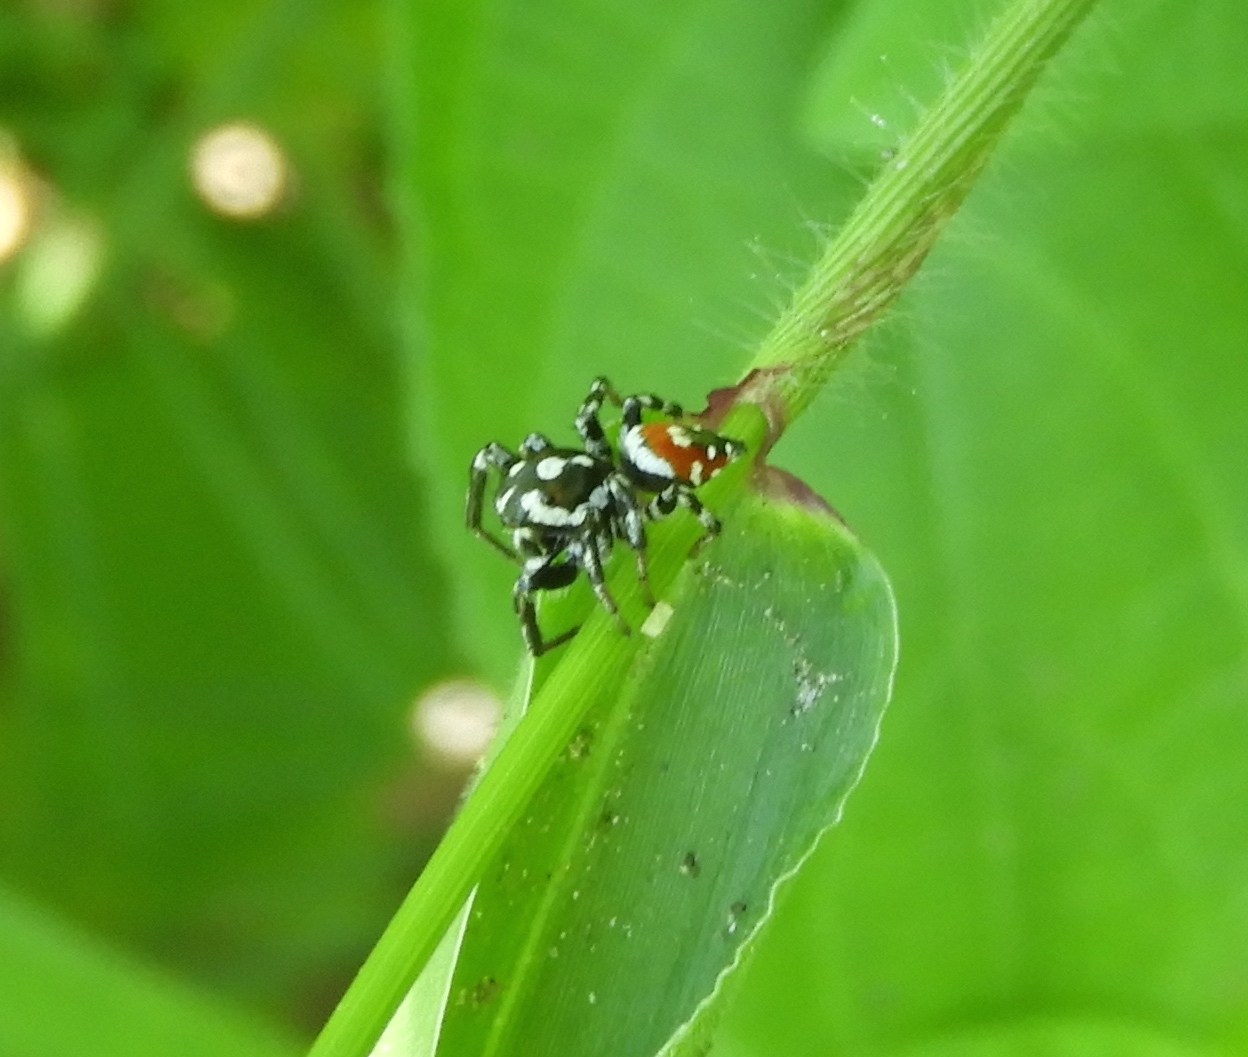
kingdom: Animalia
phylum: Arthropoda
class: Arachnida
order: Araneae
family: Salticidae
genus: Nycerella
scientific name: Nycerella delecta
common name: Jumping spiders
